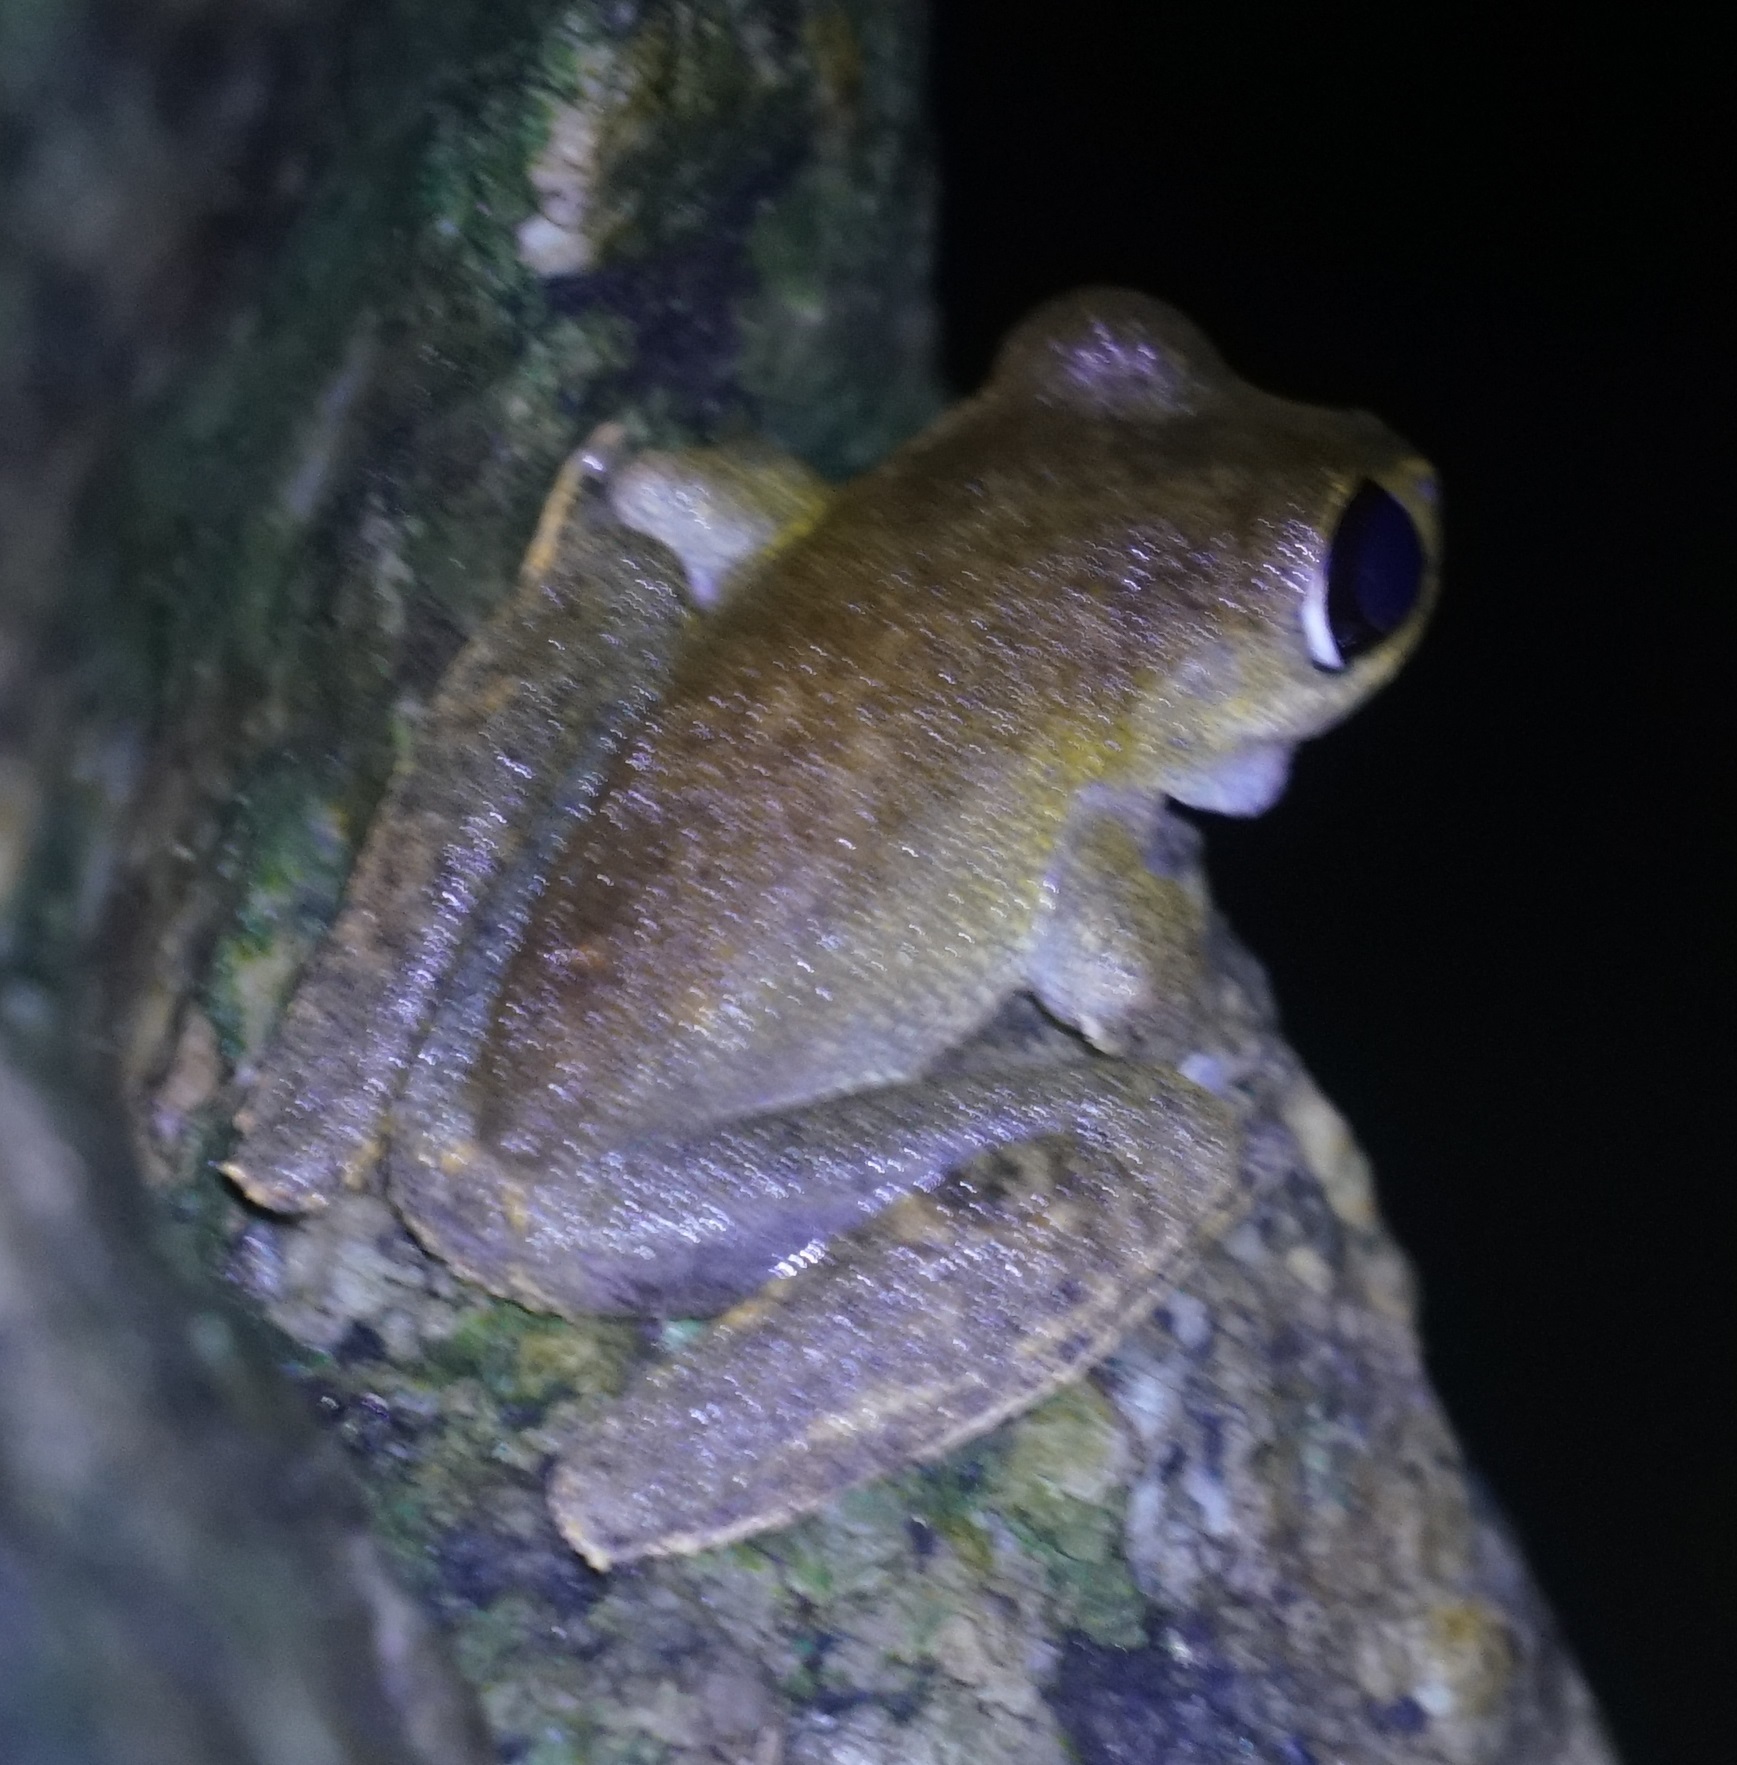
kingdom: Animalia
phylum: Chordata
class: Amphibia
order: Anura
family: Pelodryadidae
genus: Ranoidea
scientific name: Ranoidea dayi
